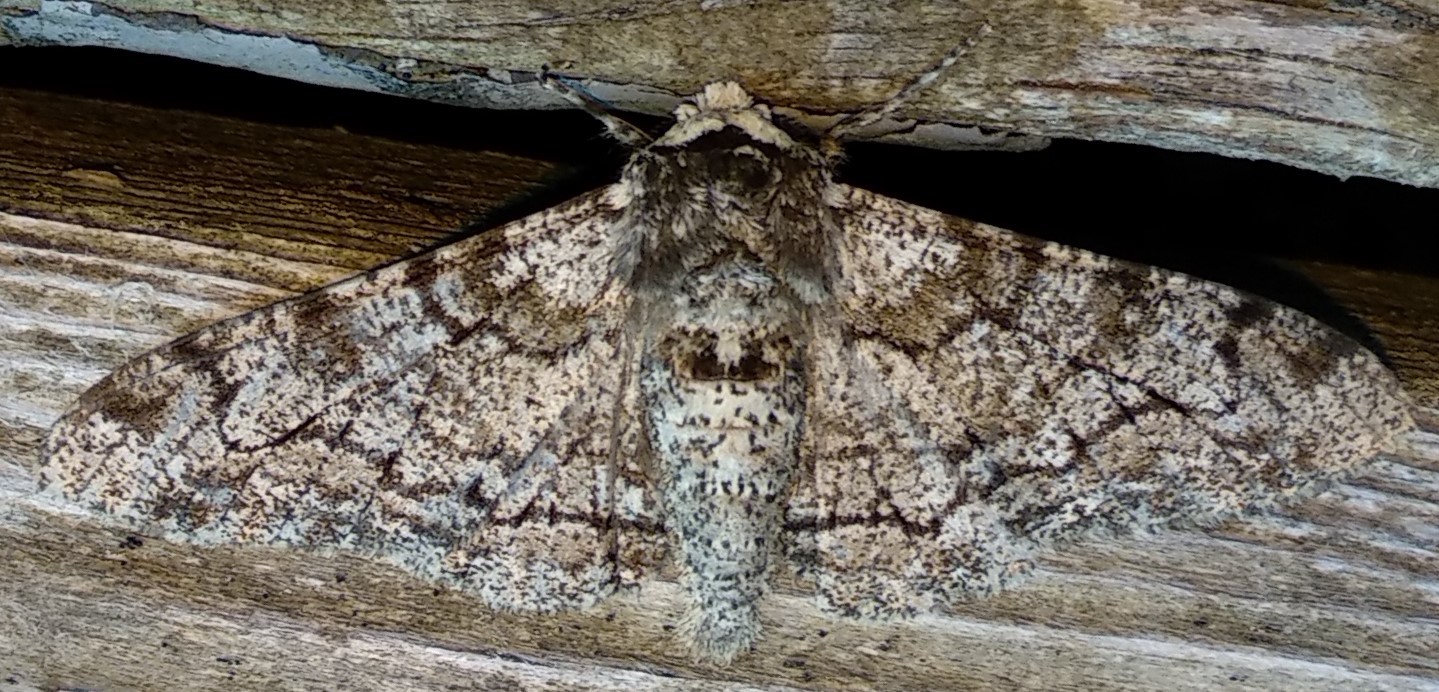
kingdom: Animalia
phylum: Arthropoda
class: Insecta
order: Lepidoptera
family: Geometridae
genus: Biston
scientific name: Biston betularia
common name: Peppered moth
